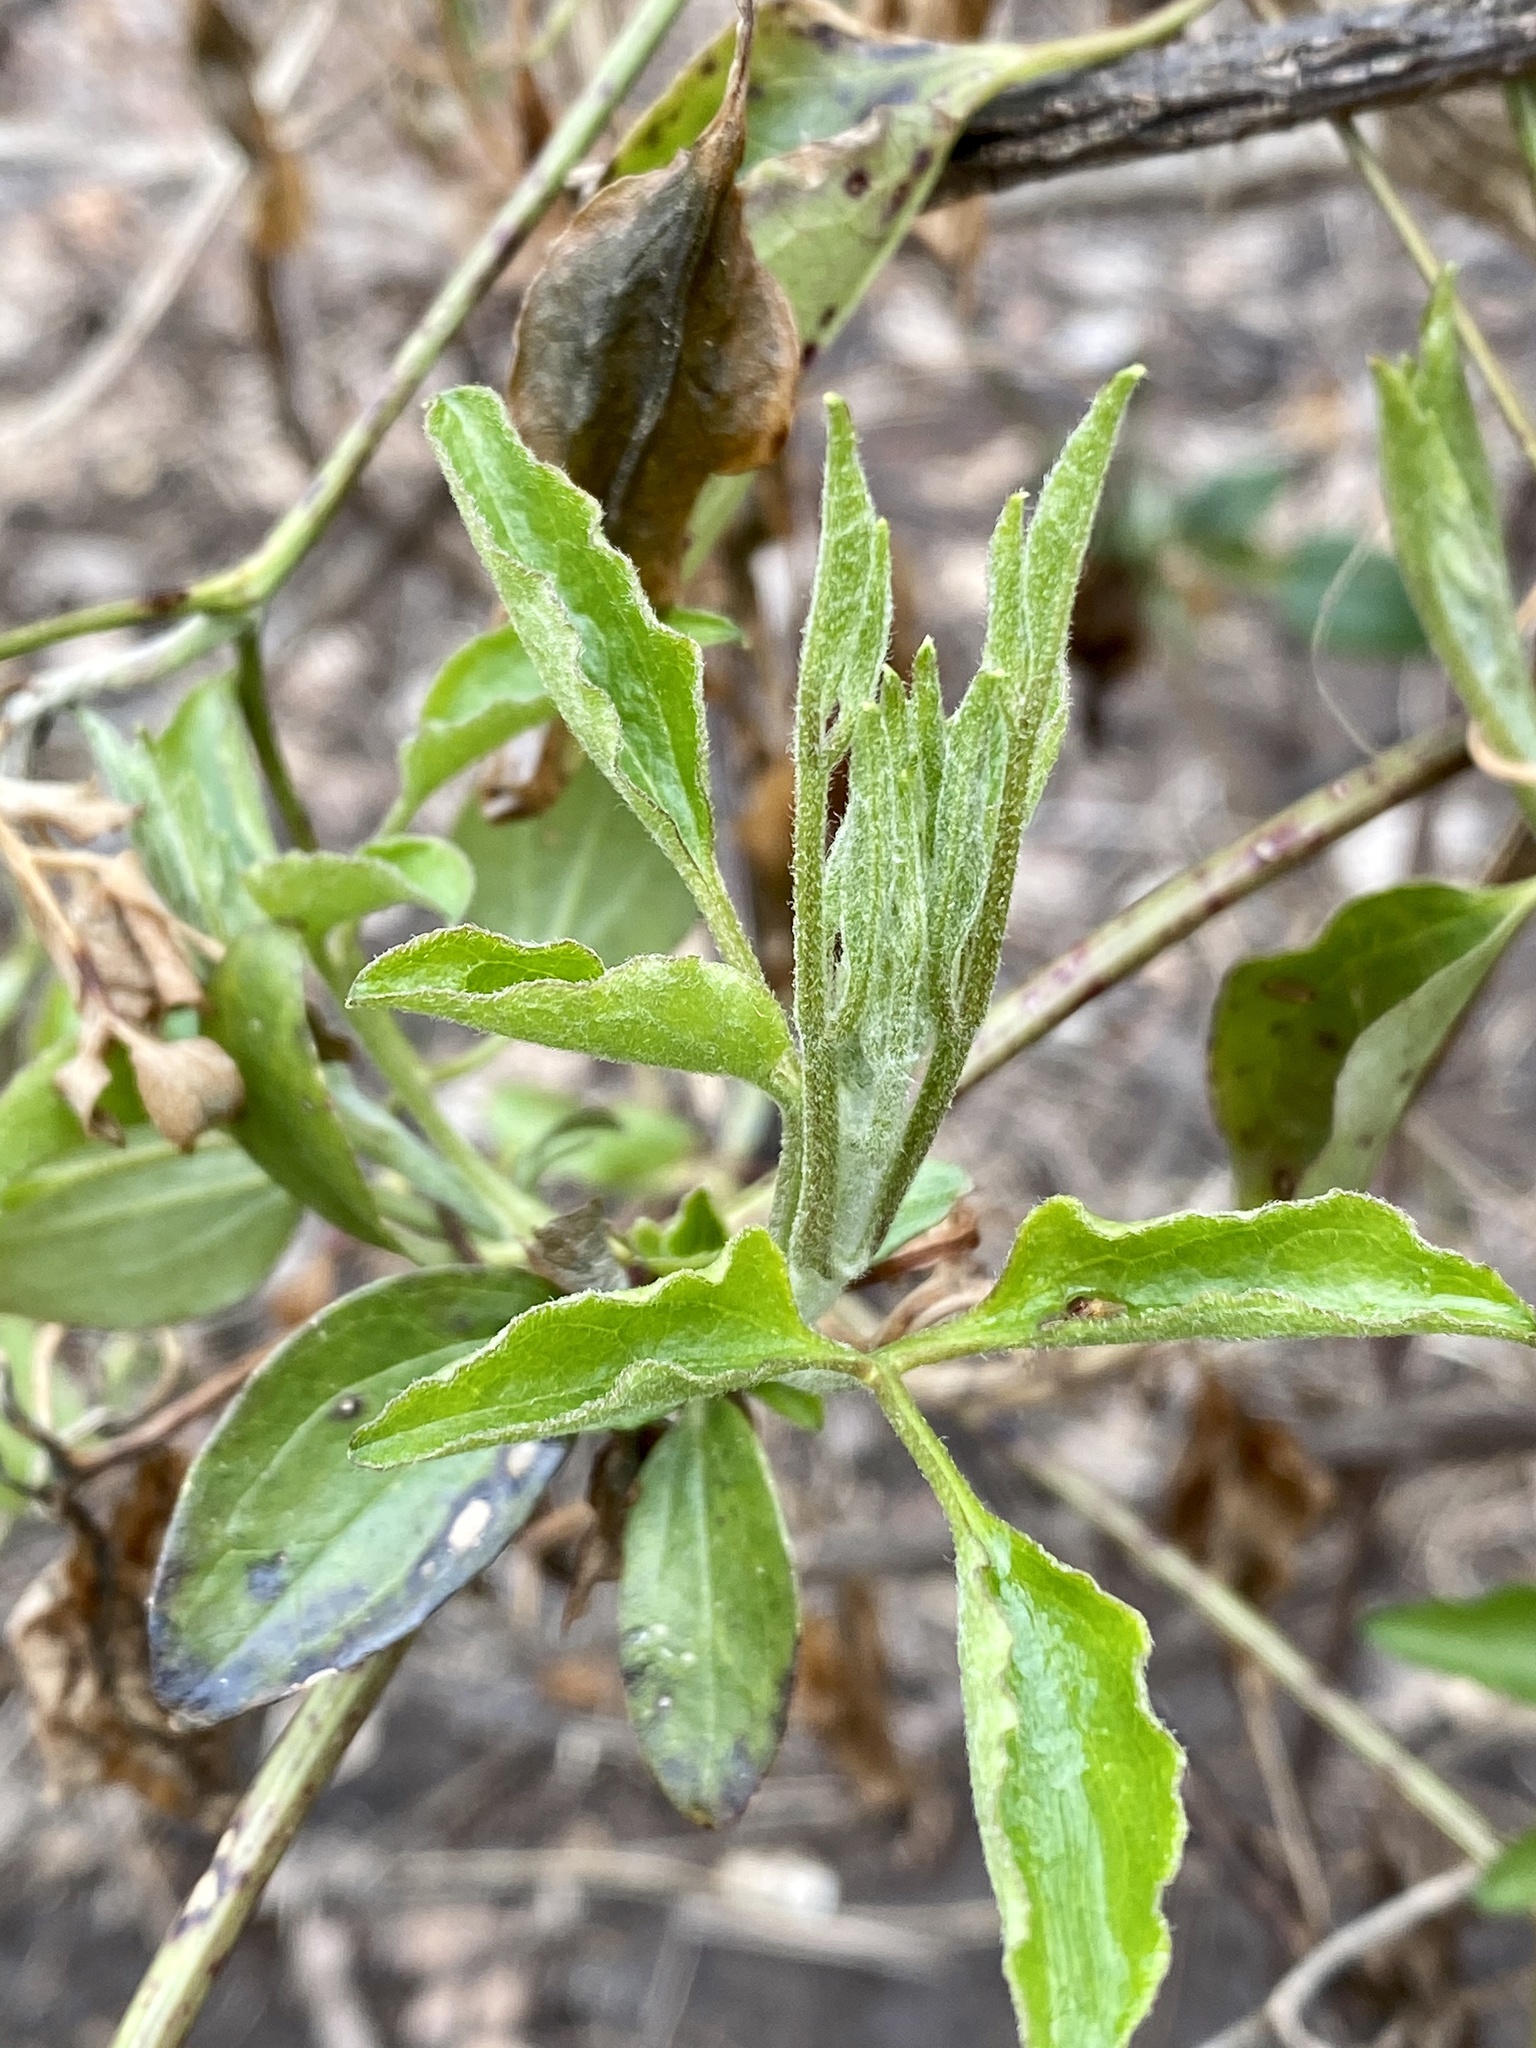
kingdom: Plantae
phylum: Tracheophyta
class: Magnoliopsida
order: Ranunculales
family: Ranunculaceae
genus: Clematis
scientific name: Clematis terniflora
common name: Sweet autumn clematis
